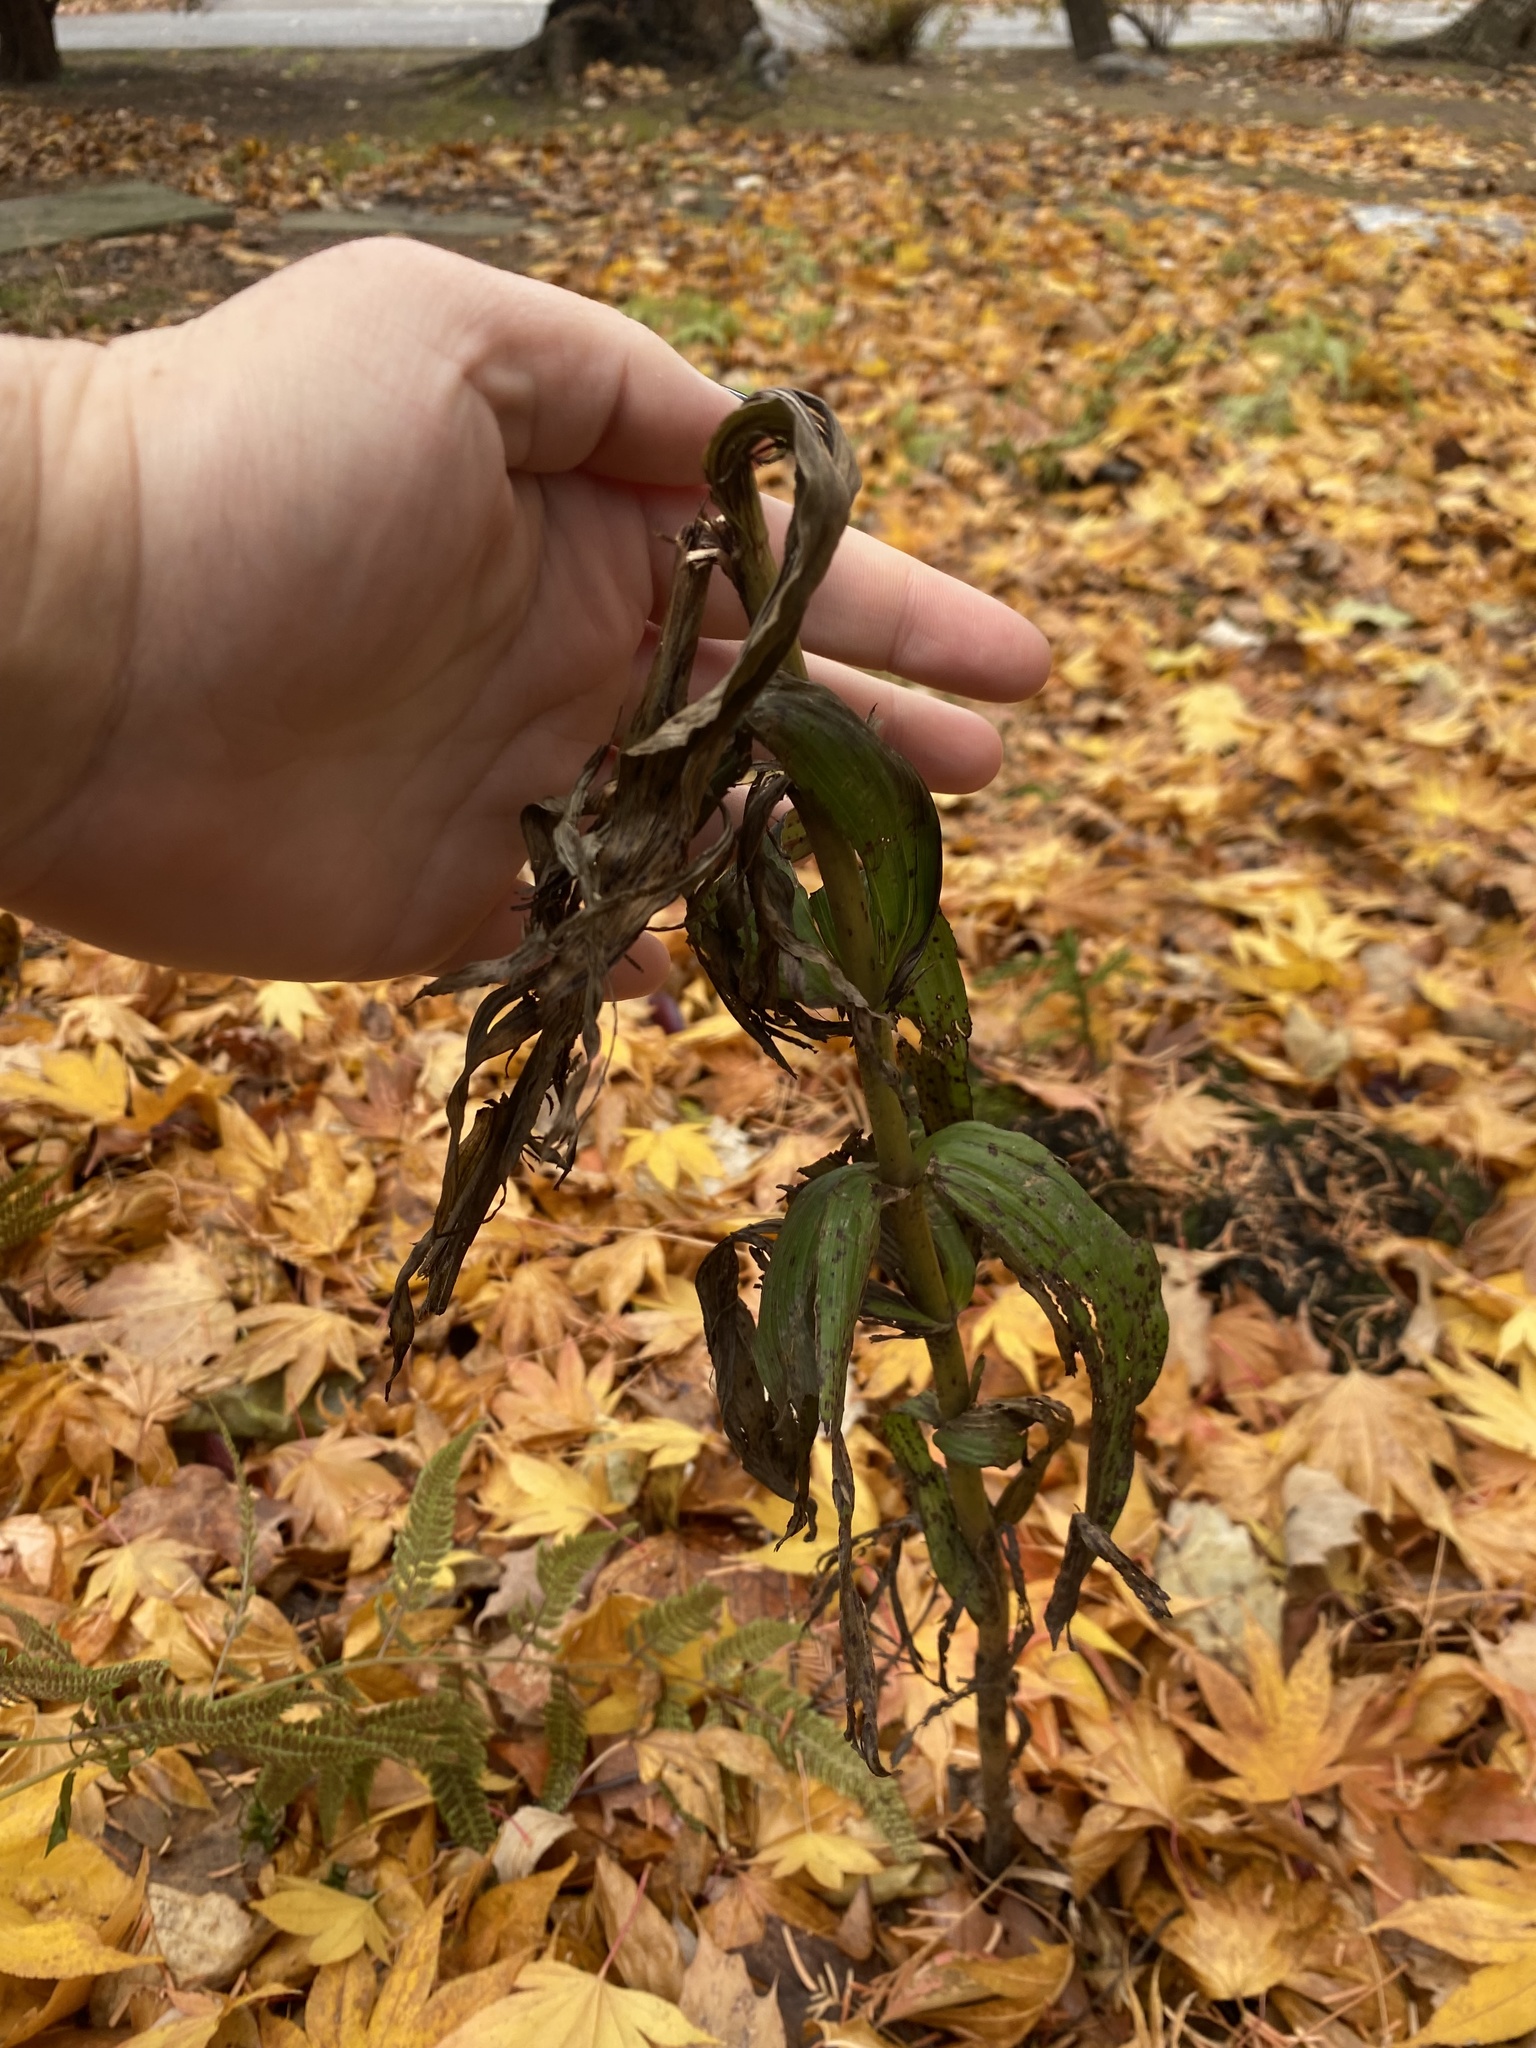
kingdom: Plantae
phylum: Tracheophyta
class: Liliopsida
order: Asparagales
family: Orchidaceae
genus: Epipactis
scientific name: Epipactis helleborine
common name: Broad-leaved helleborine
